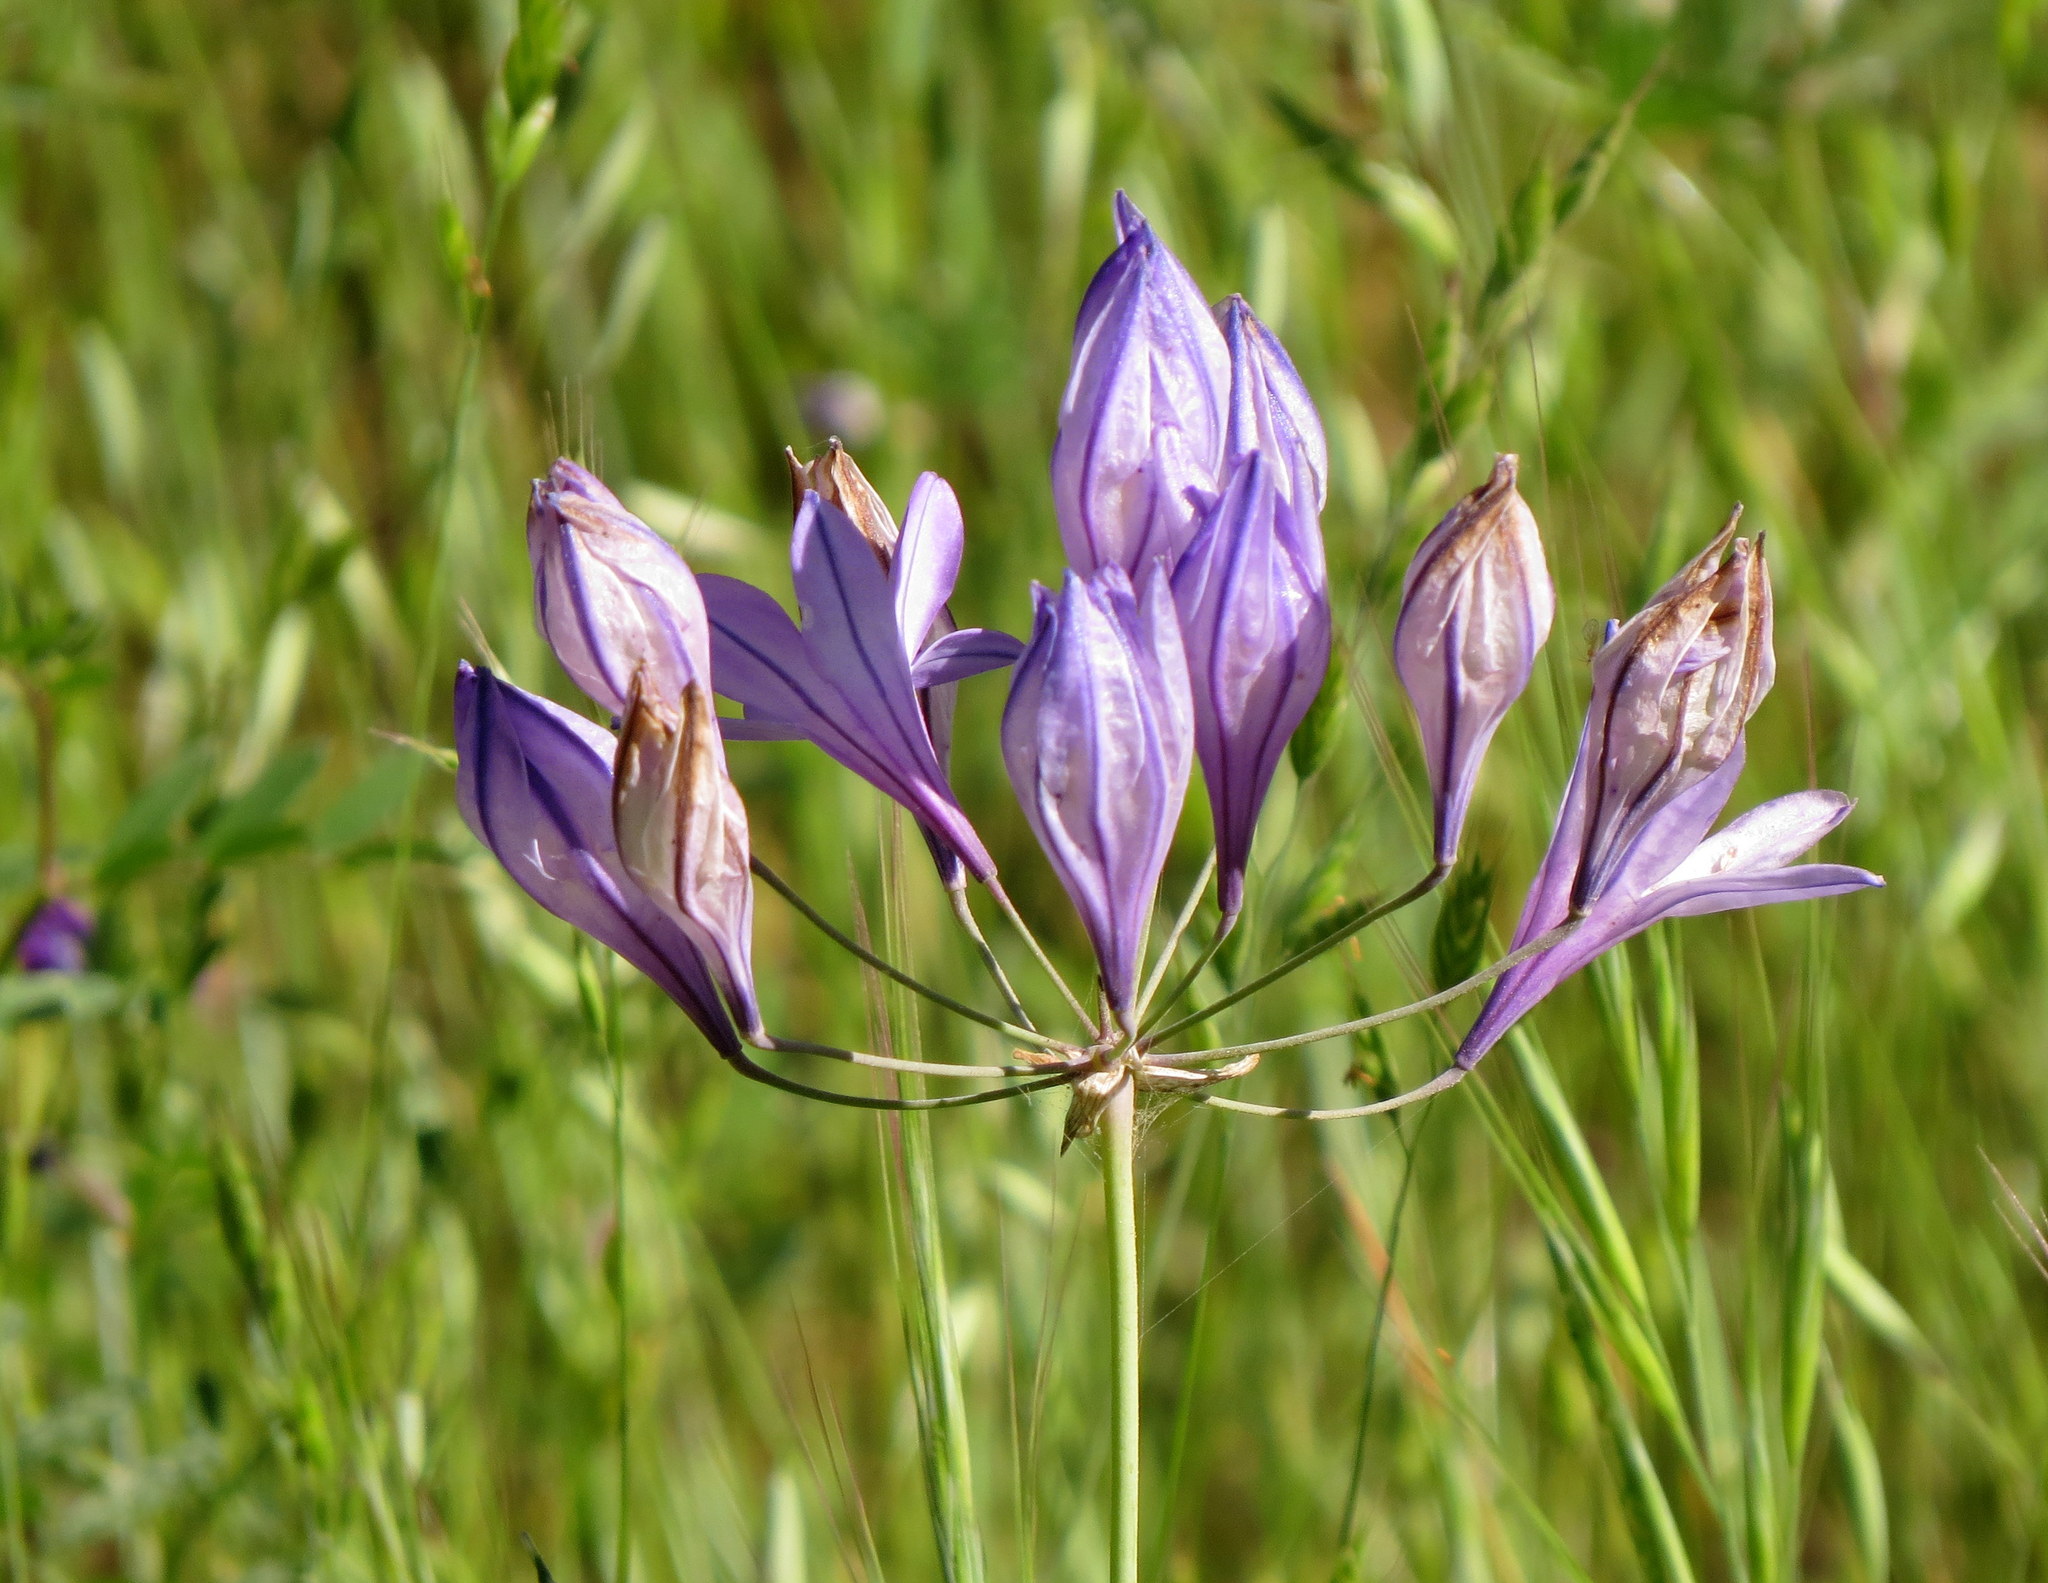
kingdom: Plantae
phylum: Tracheophyta
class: Liliopsida
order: Asparagales
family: Asparagaceae
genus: Triteleia
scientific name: Triteleia laxa
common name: Triplet-lily
